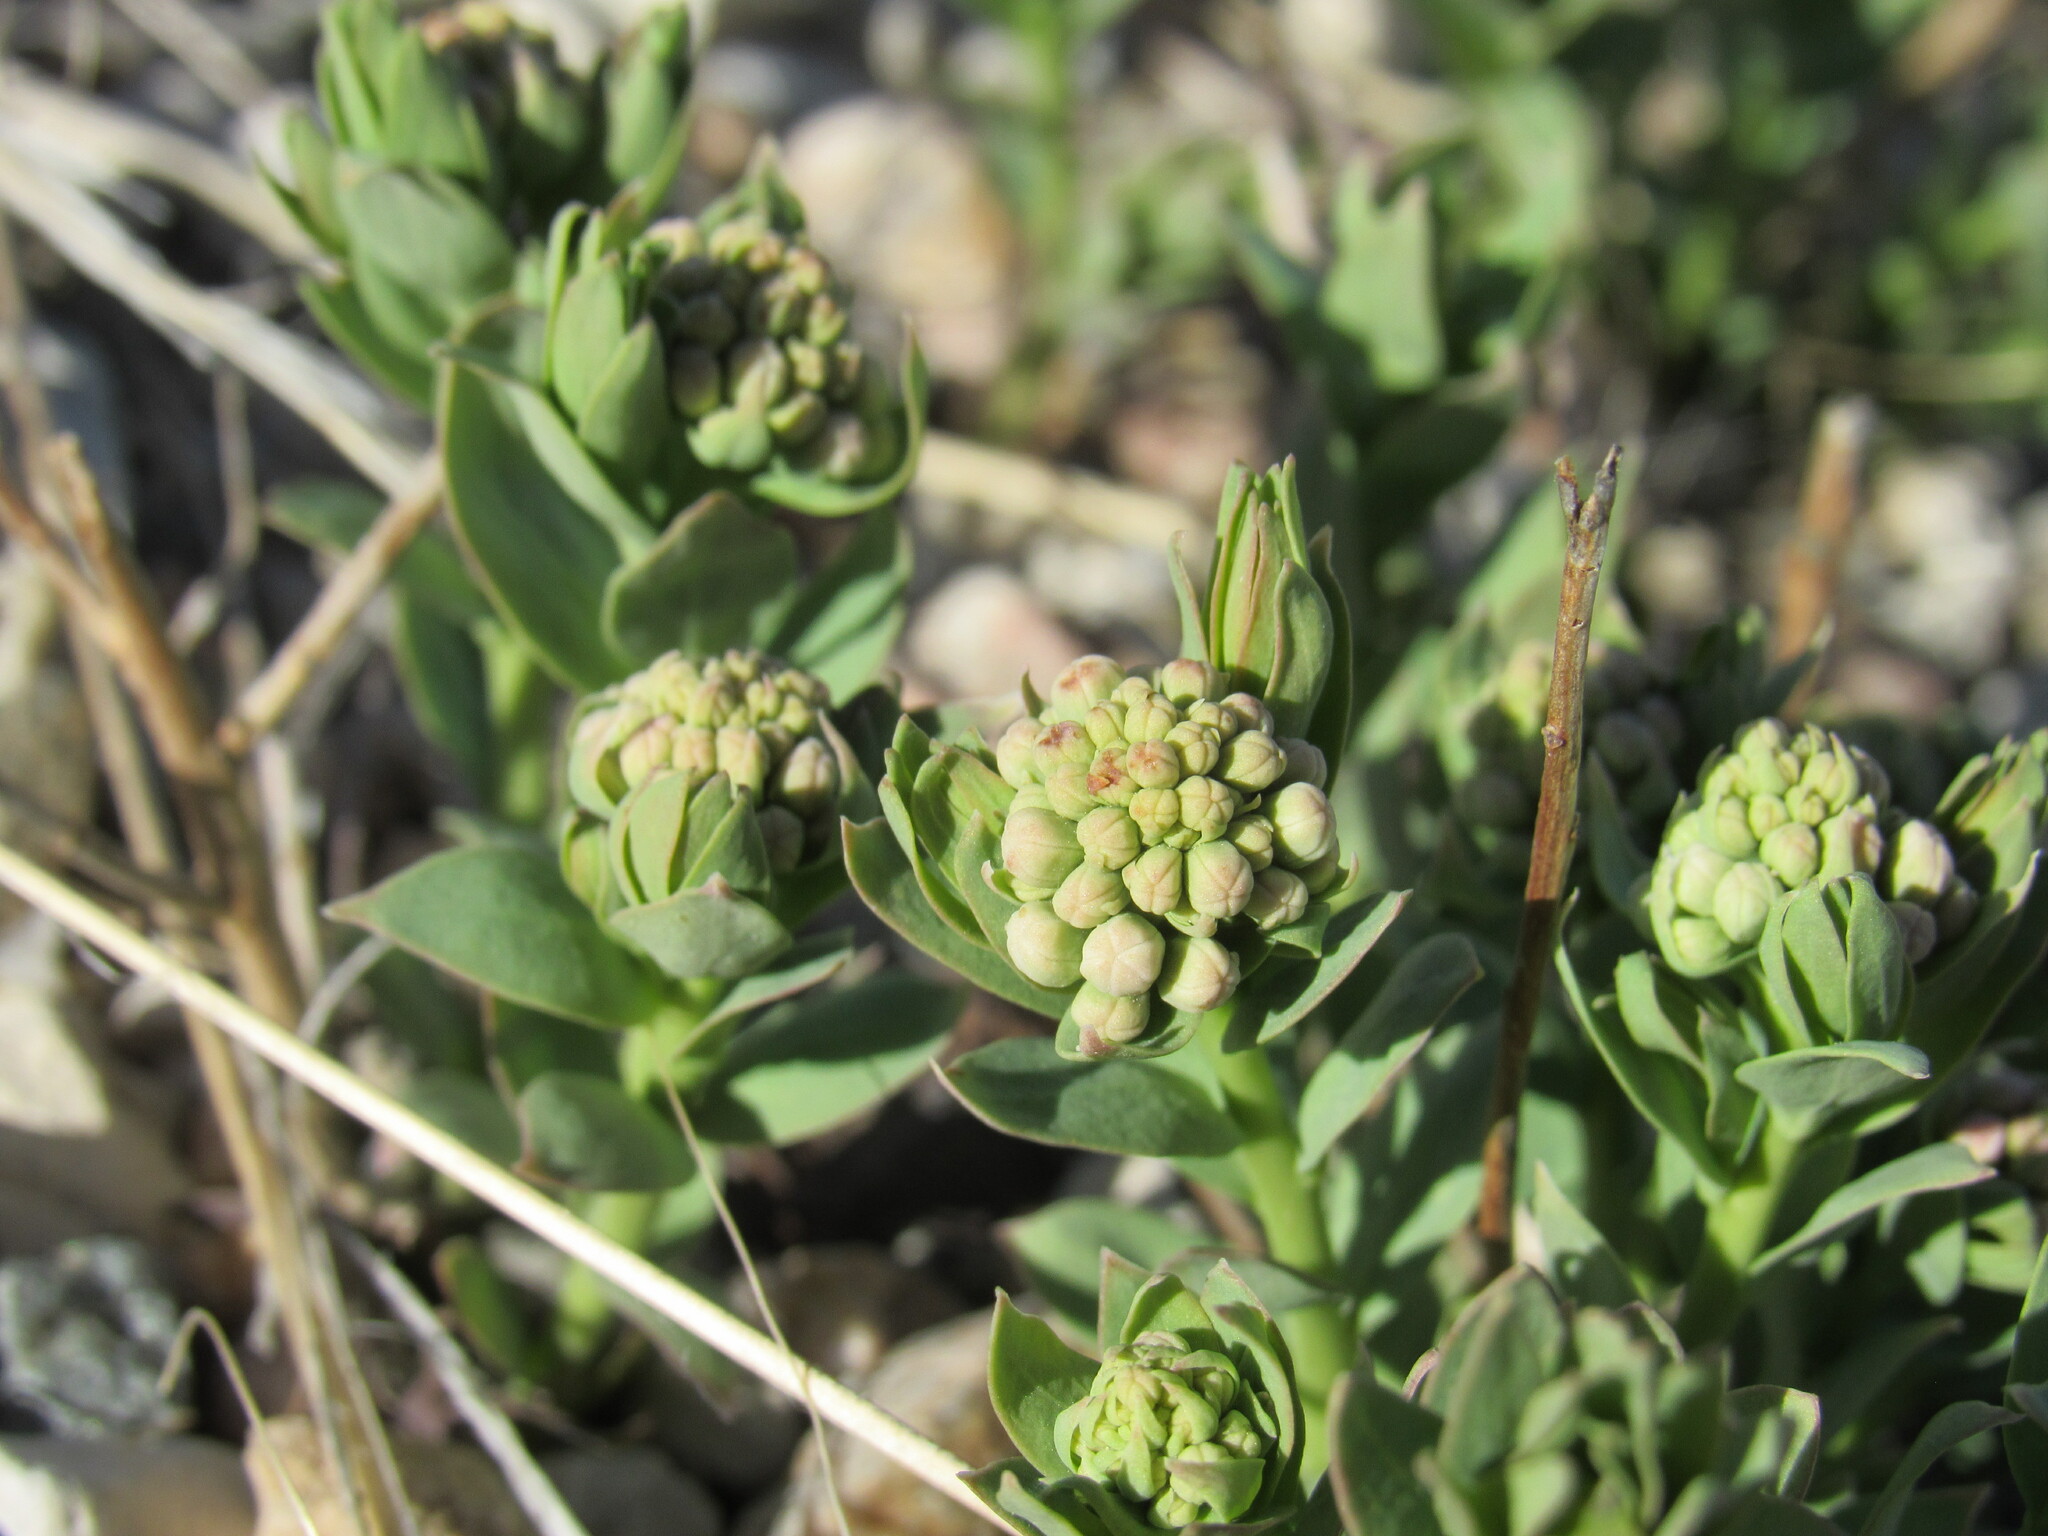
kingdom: Plantae
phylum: Tracheophyta
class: Magnoliopsida
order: Santalales
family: Comandraceae
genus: Comandra
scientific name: Comandra umbellata
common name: Bastard toadflax
